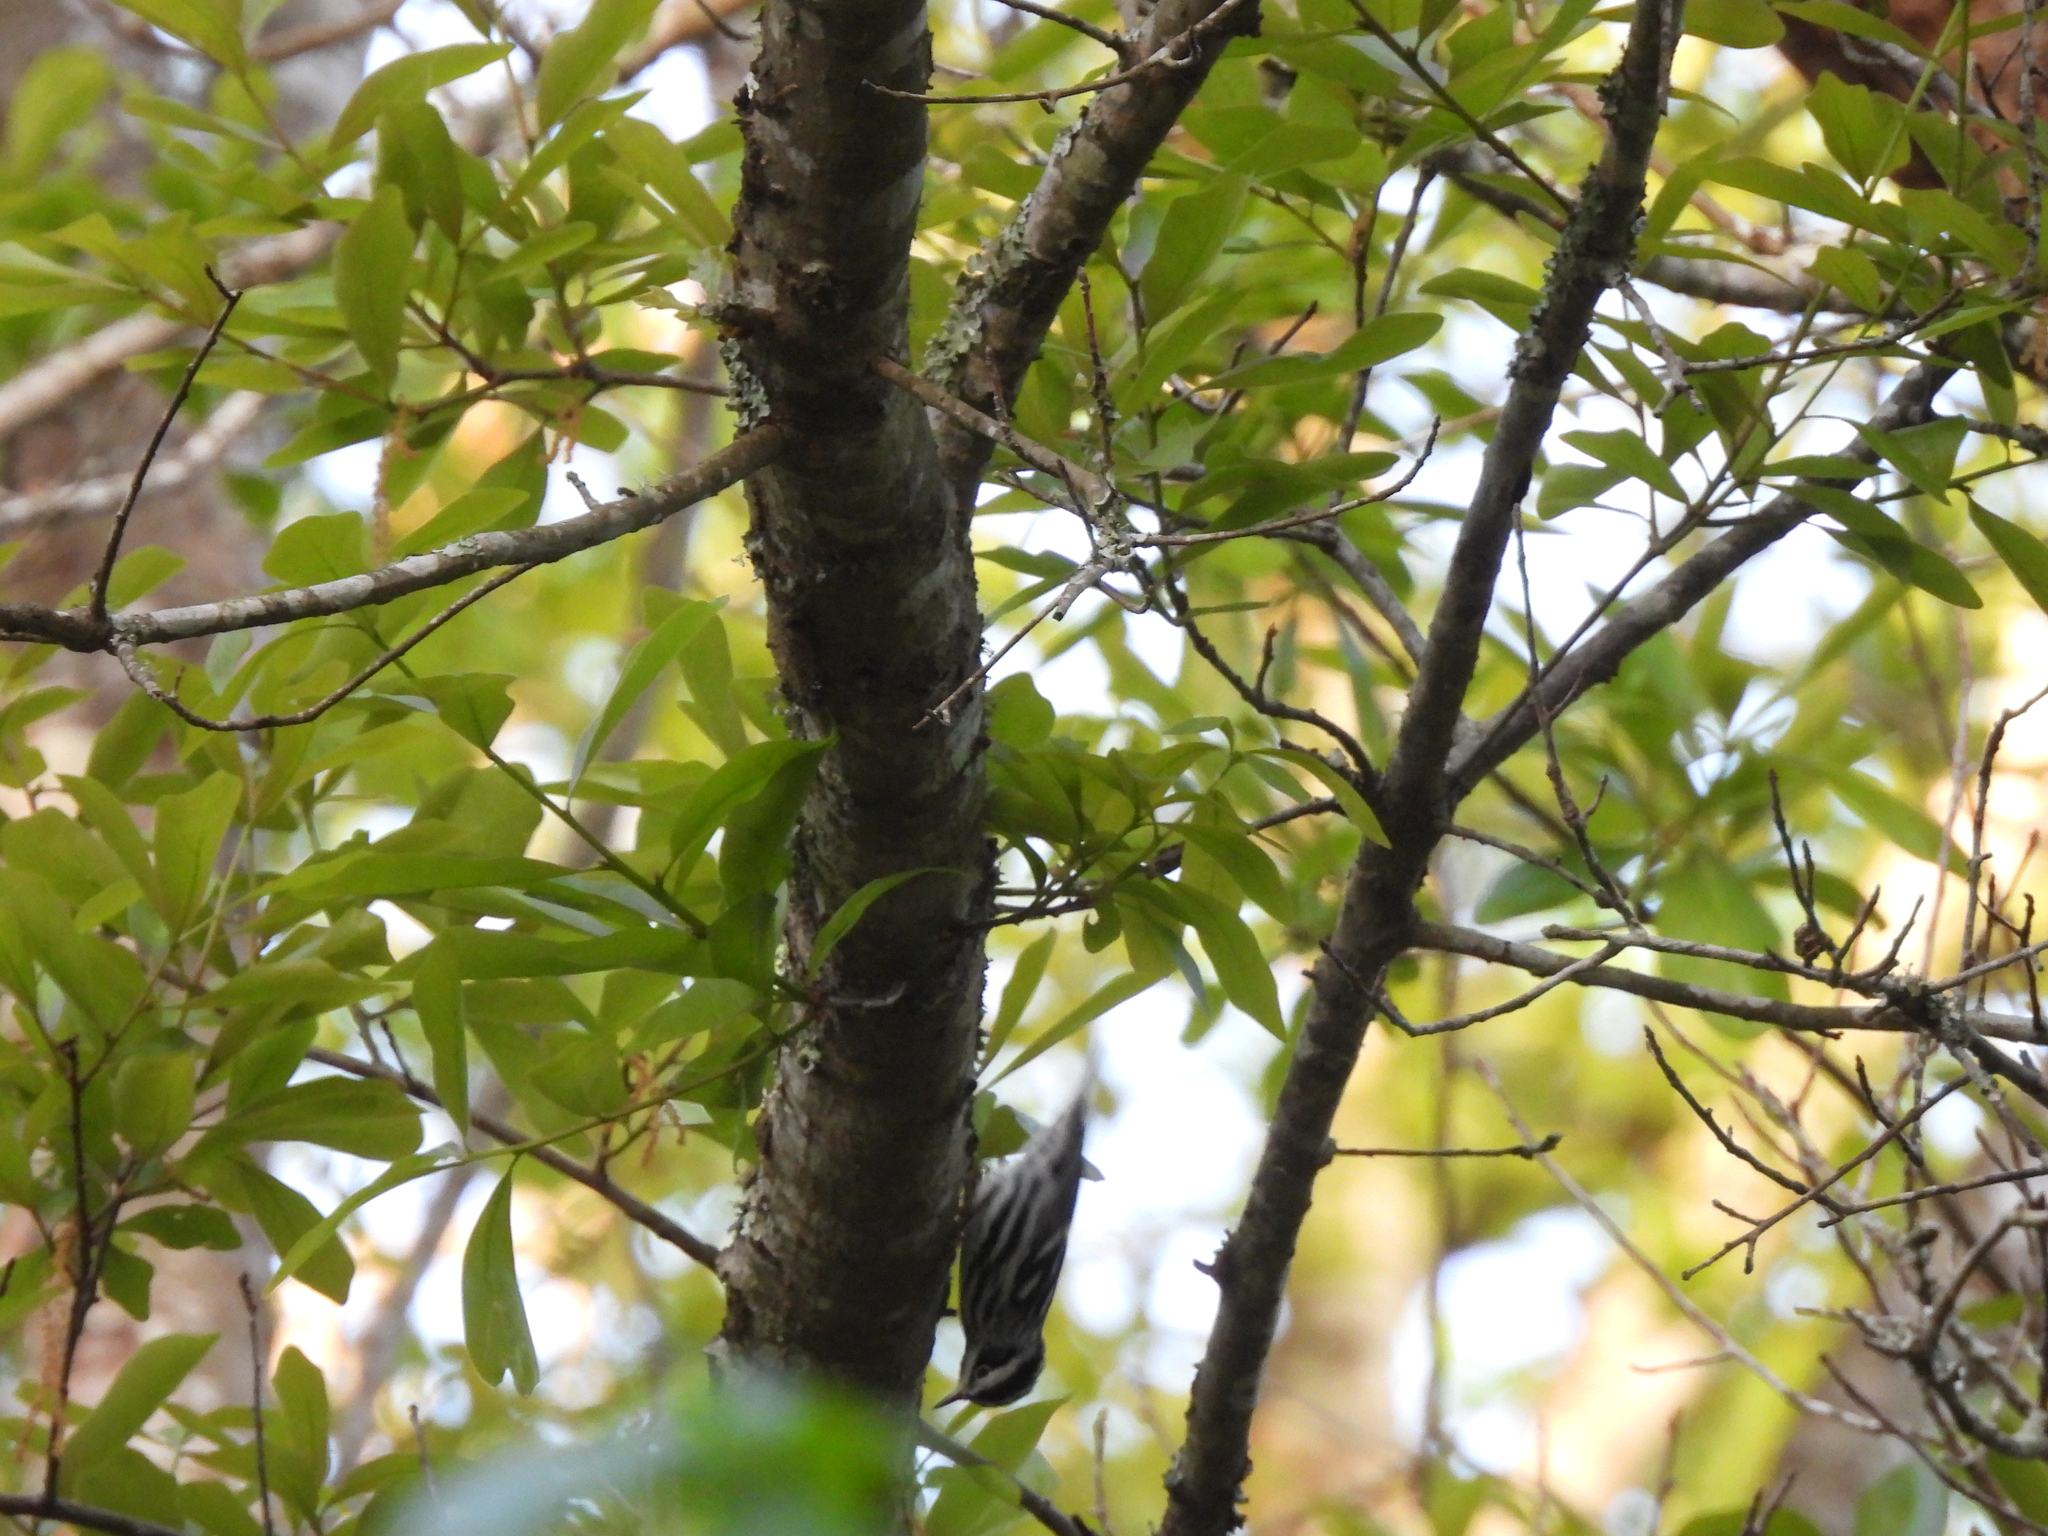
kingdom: Animalia
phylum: Chordata
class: Aves
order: Passeriformes
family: Parulidae
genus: Mniotilta
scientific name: Mniotilta varia
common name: Black-and-white warbler
